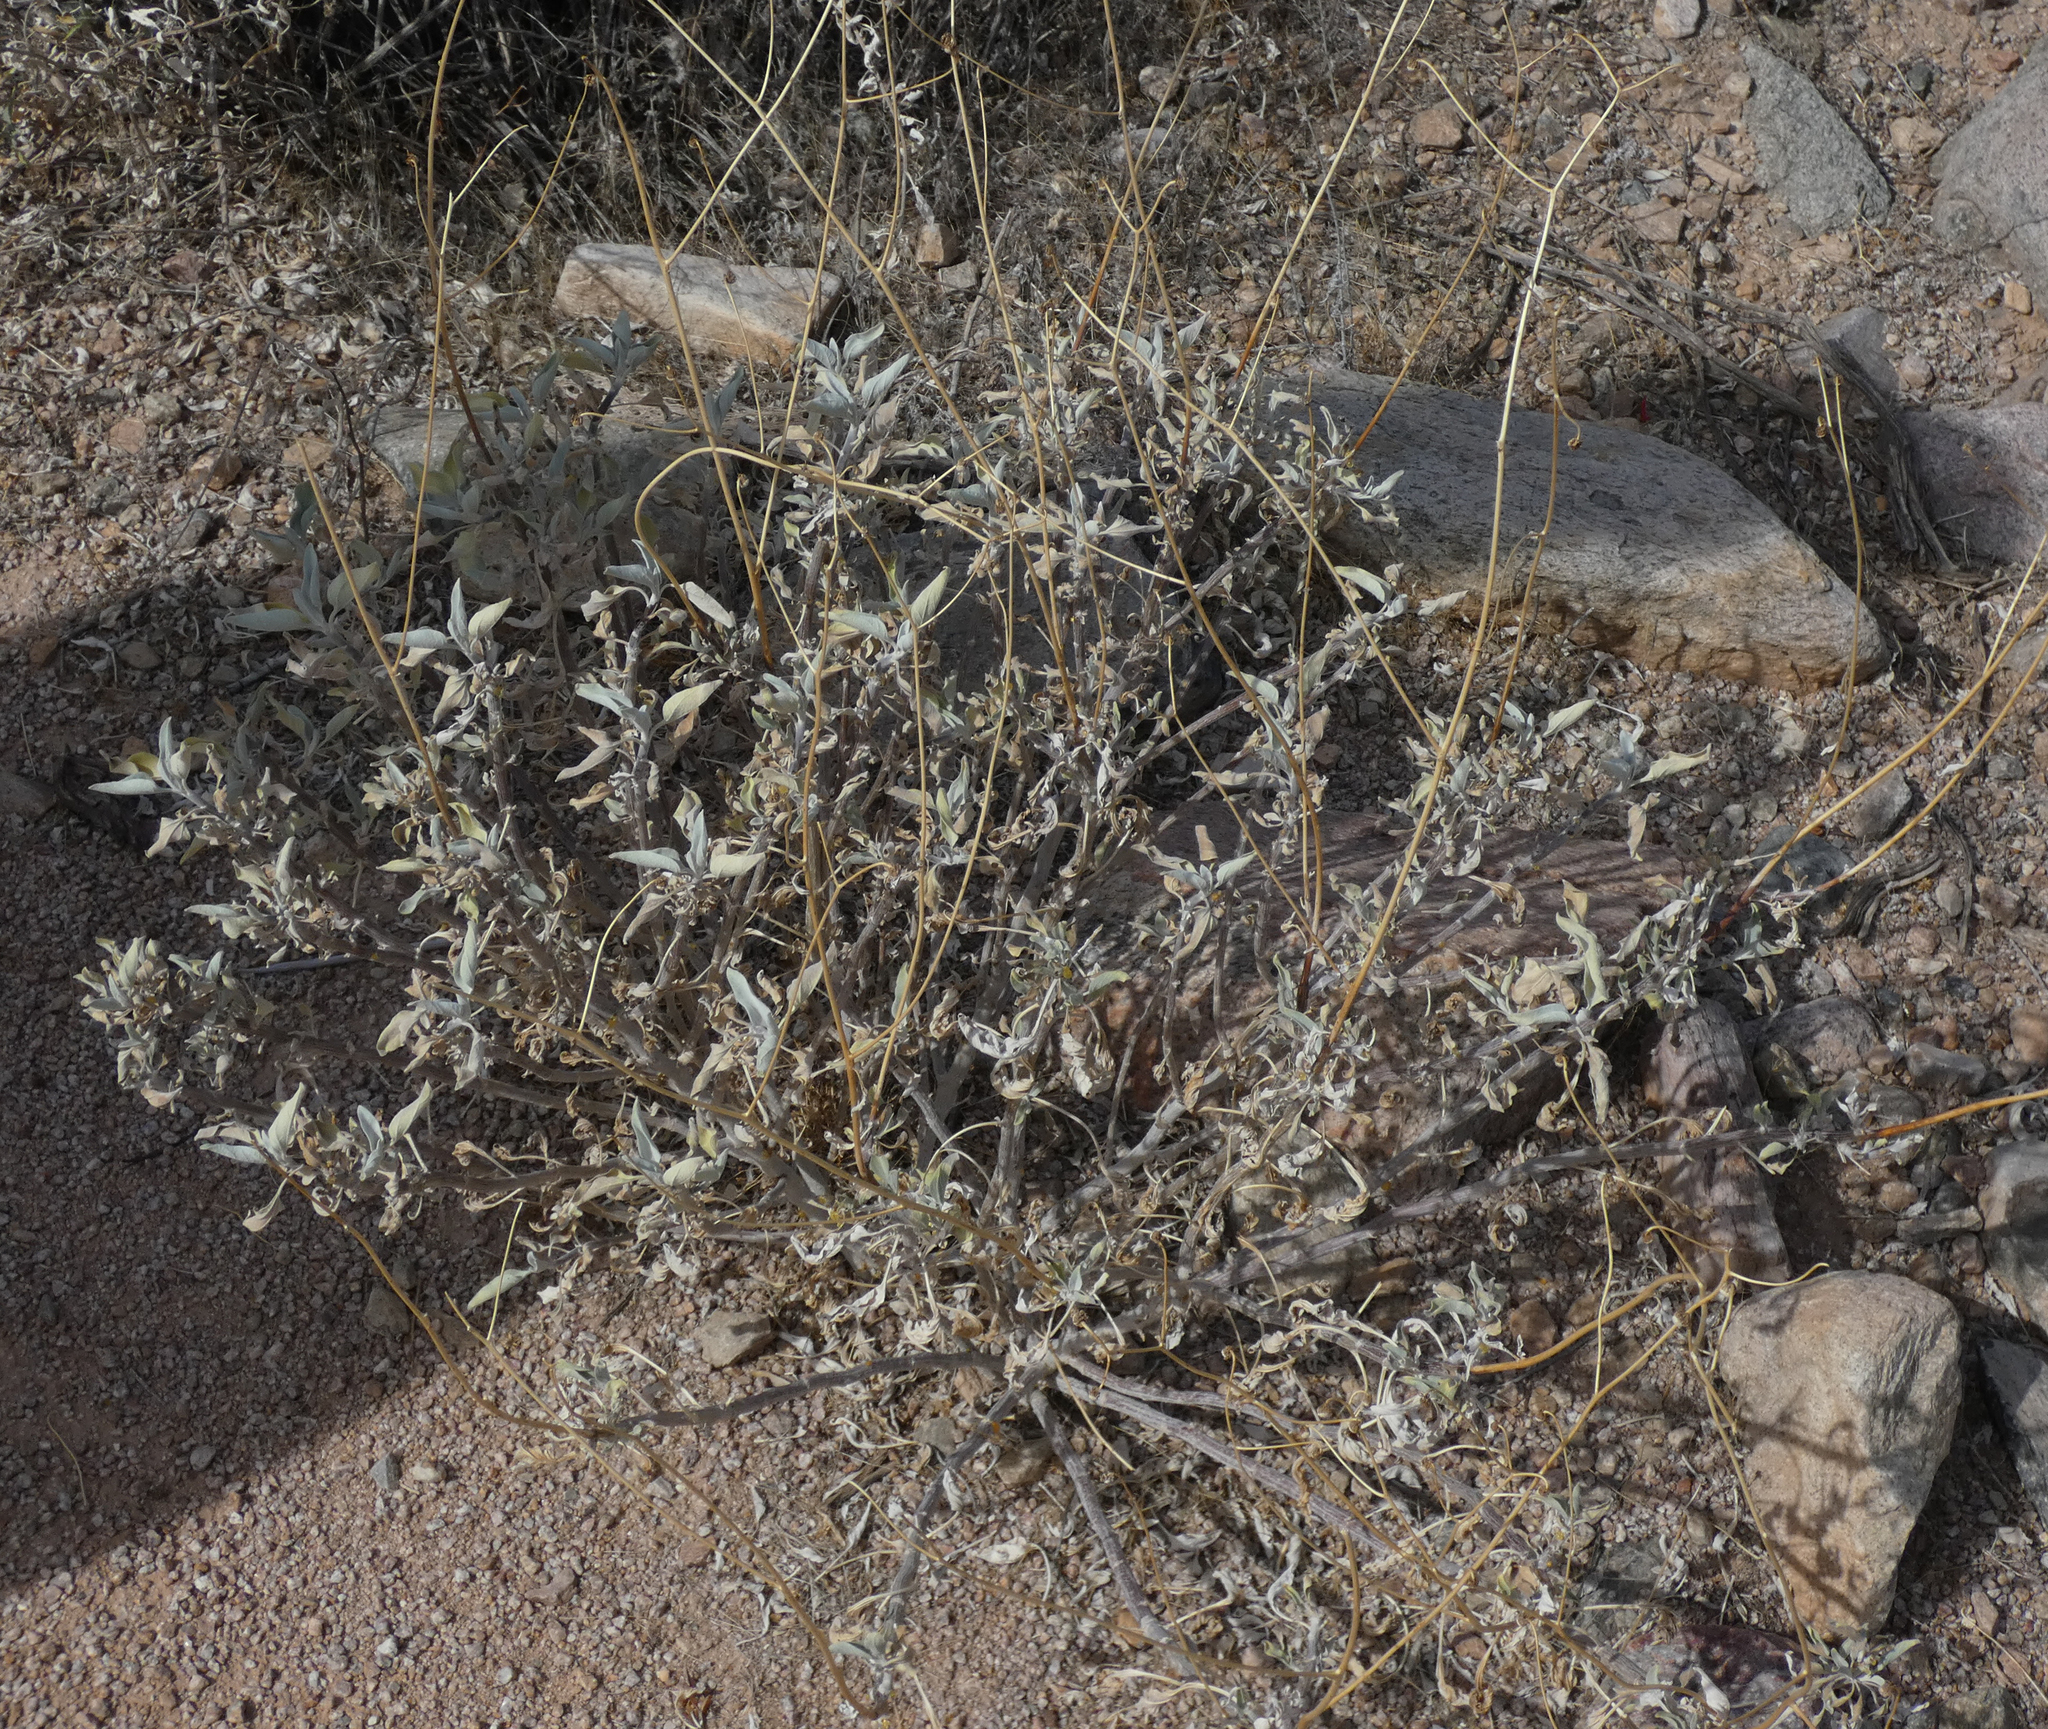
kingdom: Plantae
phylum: Tracheophyta
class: Magnoliopsida
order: Asterales
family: Asteraceae
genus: Encelia
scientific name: Encelia farinosa
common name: Brittlebush
